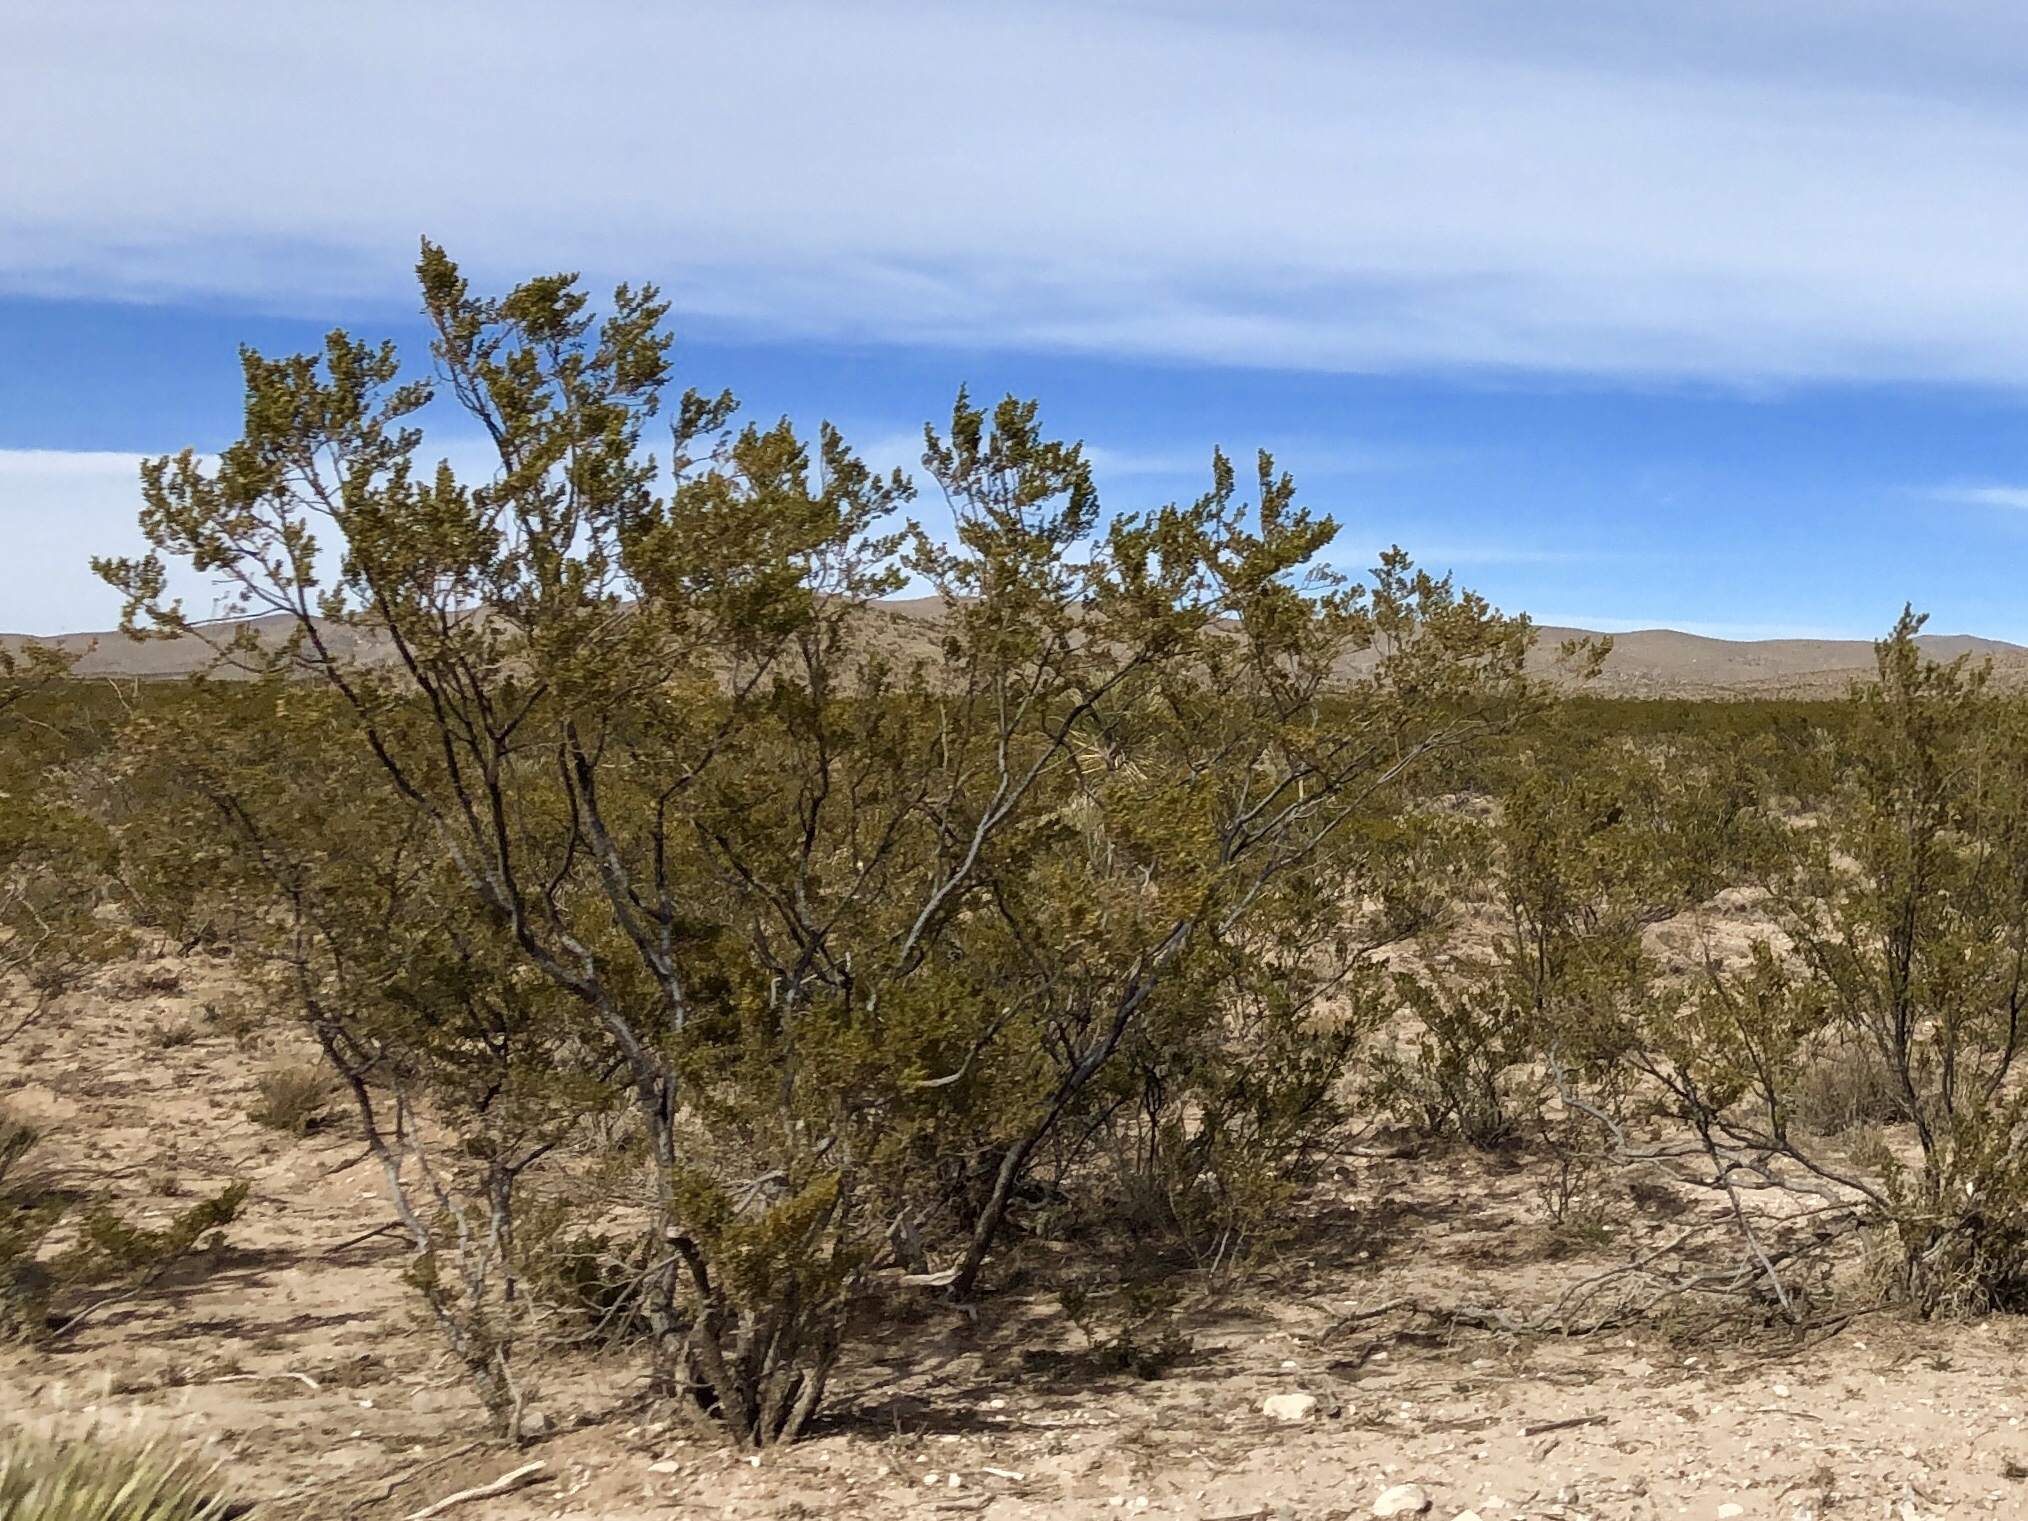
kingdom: Plantae
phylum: Tracheophyta
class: Magnoliopsida
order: Zygophyllales
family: Zygophyllaceae
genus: Larrea
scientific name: Larrea tridentata
